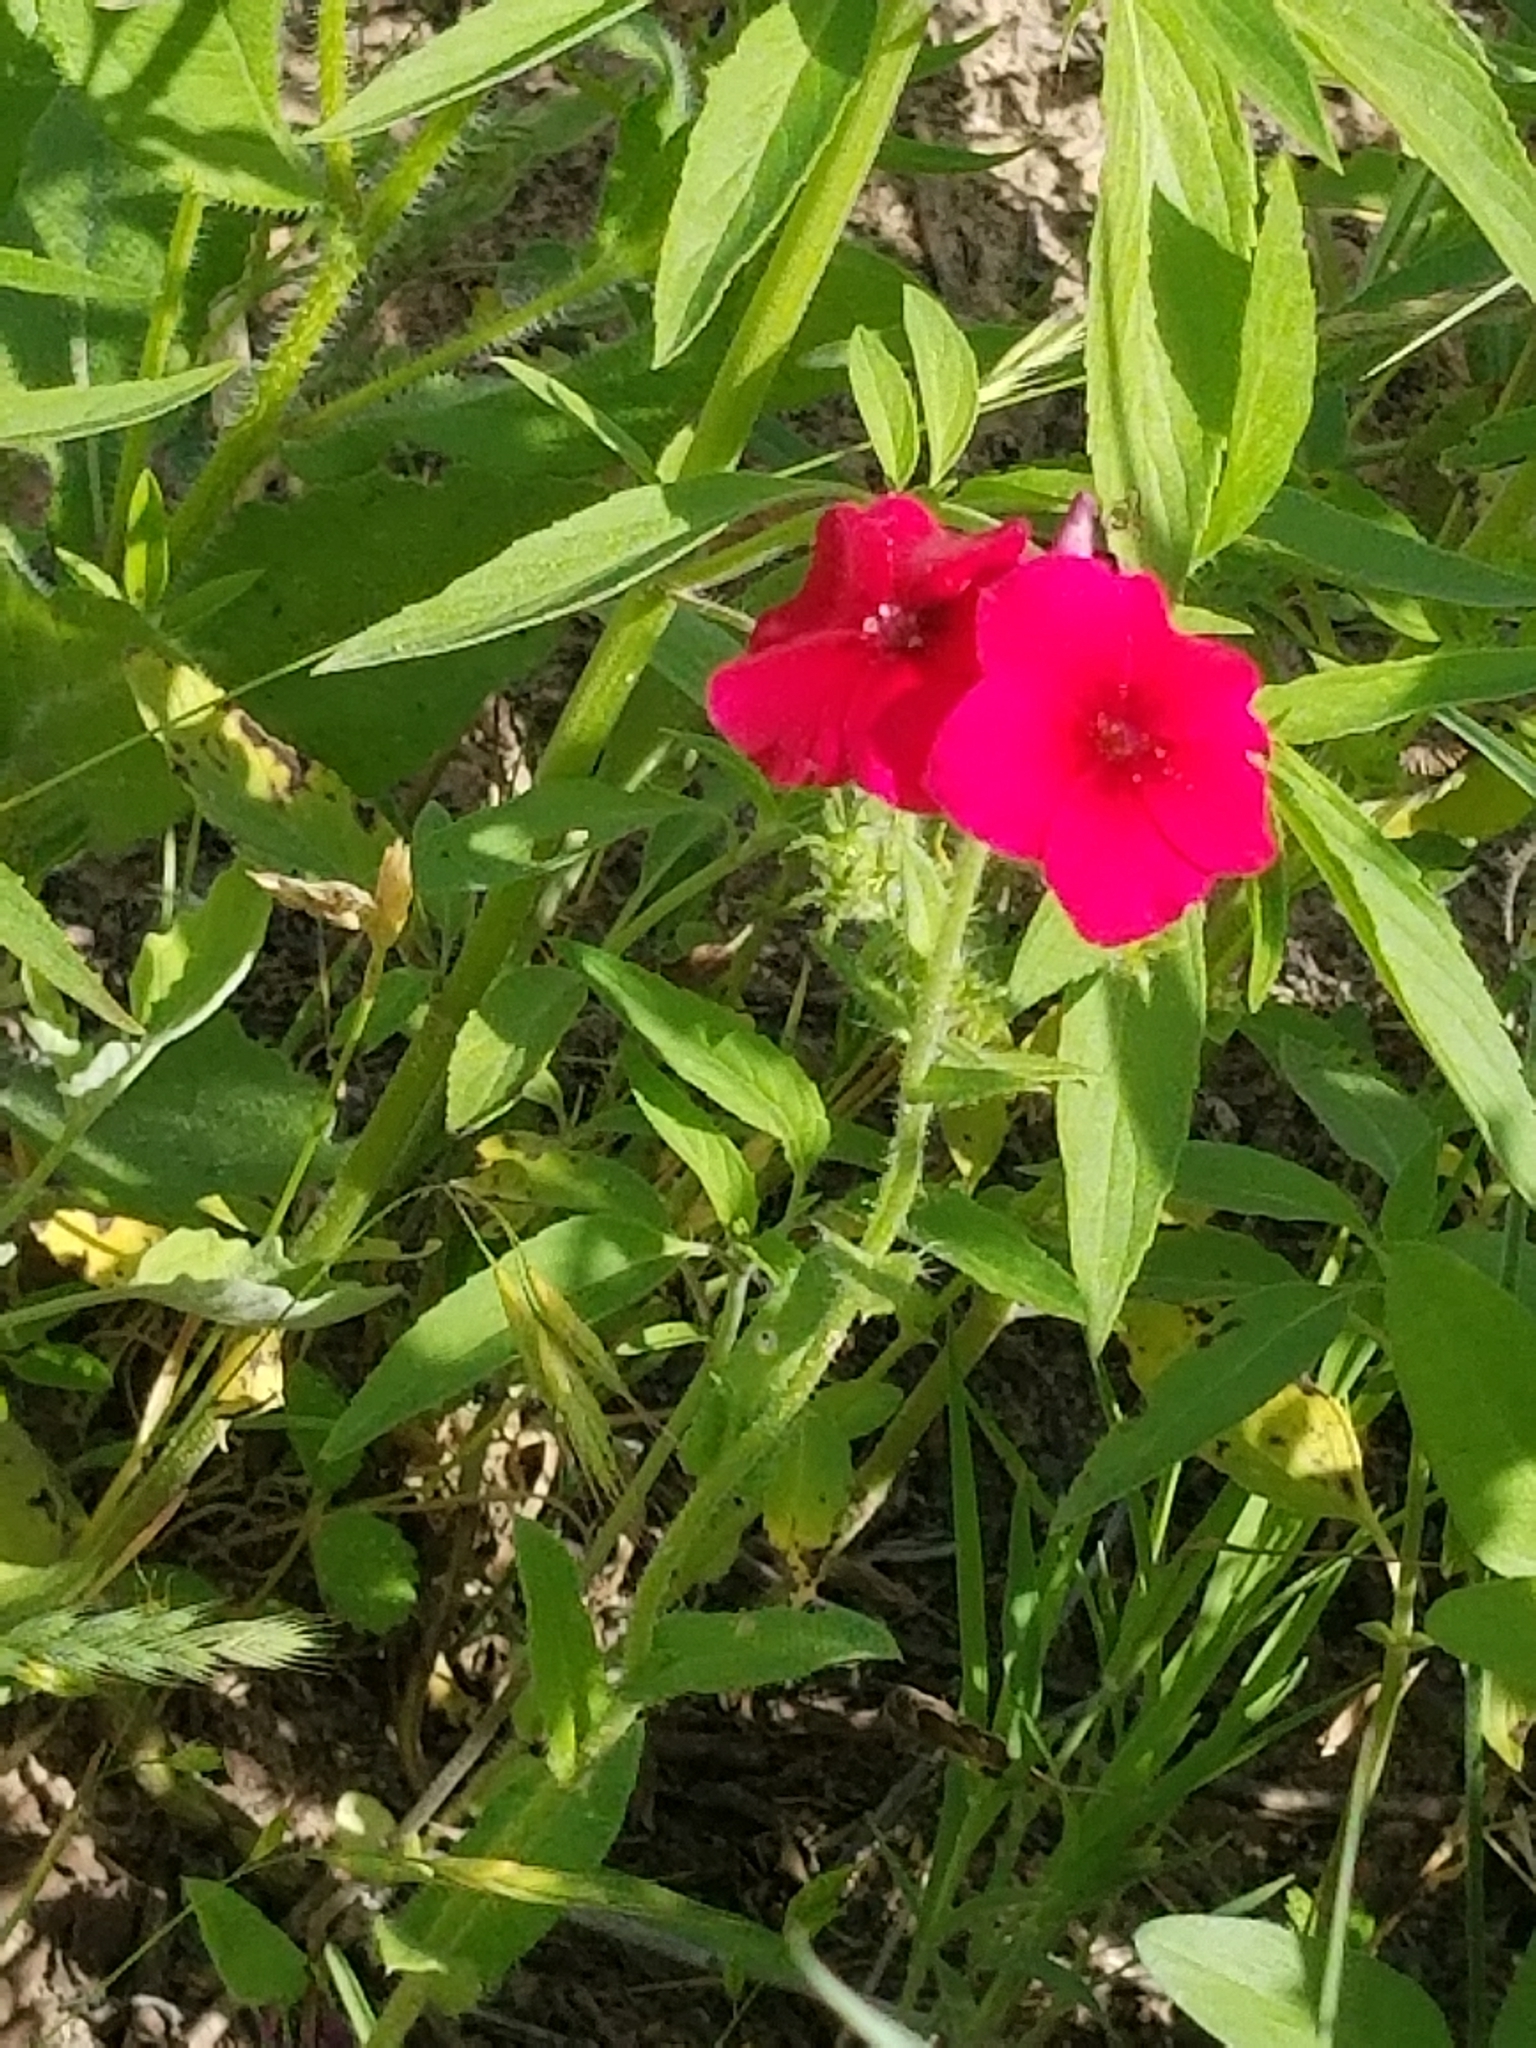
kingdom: Plantae
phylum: Tracheophyta
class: Magnoliopsida
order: Ericales
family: Polemoniaceae
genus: Phlox
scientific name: Phlox drummondii
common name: Drummond's phlox
